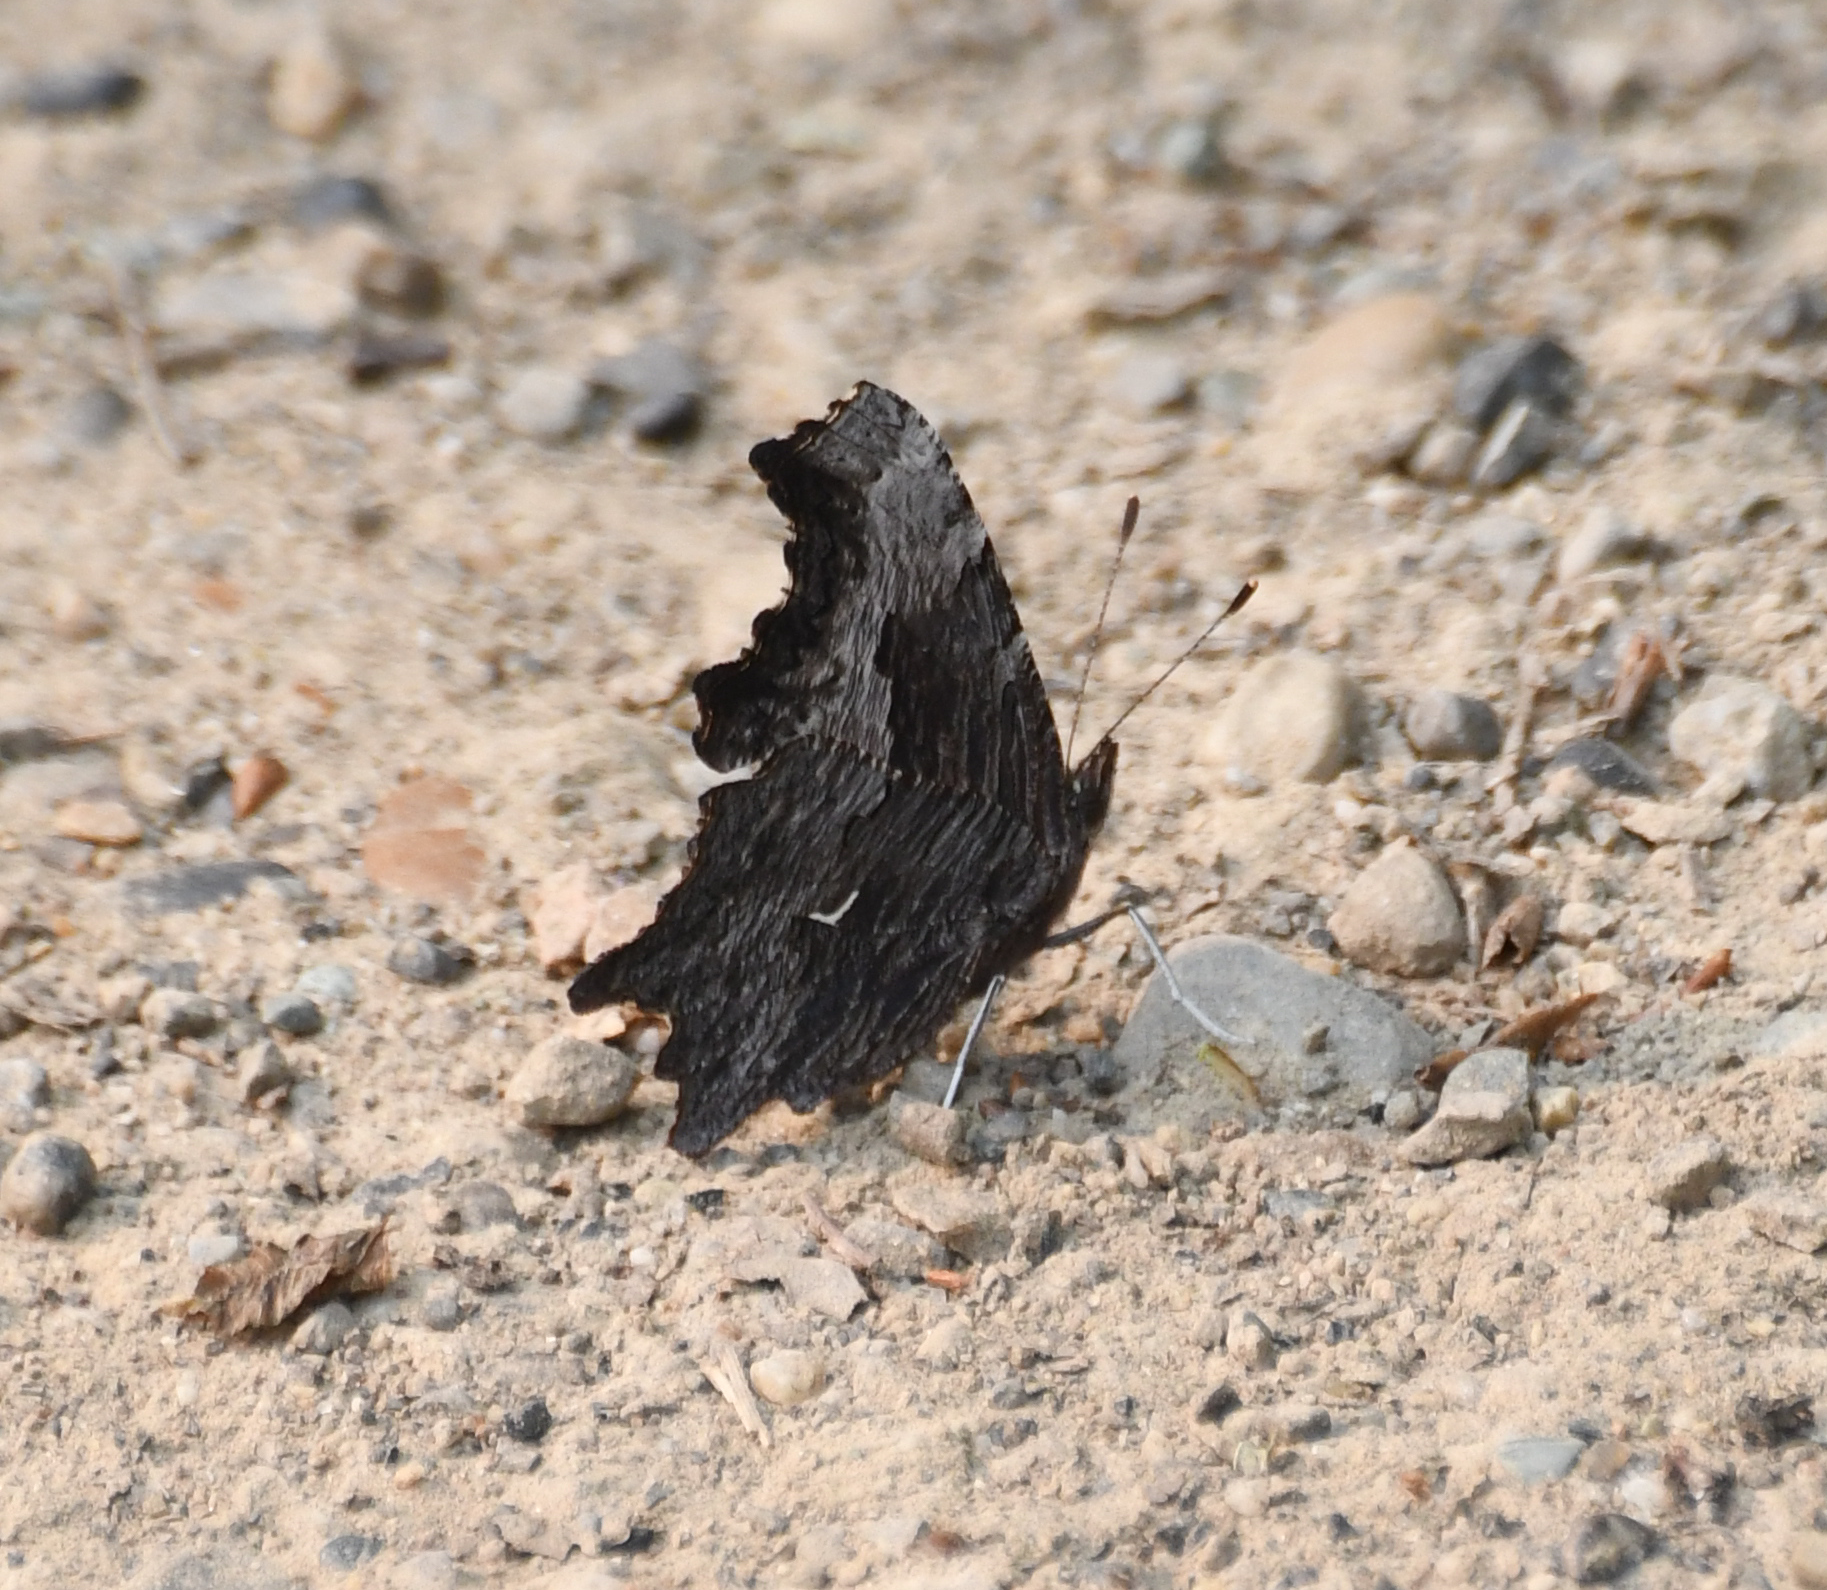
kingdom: Animalia
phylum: Arthropoda
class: Insecta
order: Lepidoptera
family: Nymphalidae
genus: Polygonia
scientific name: Polygonia progne
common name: Gray comma
